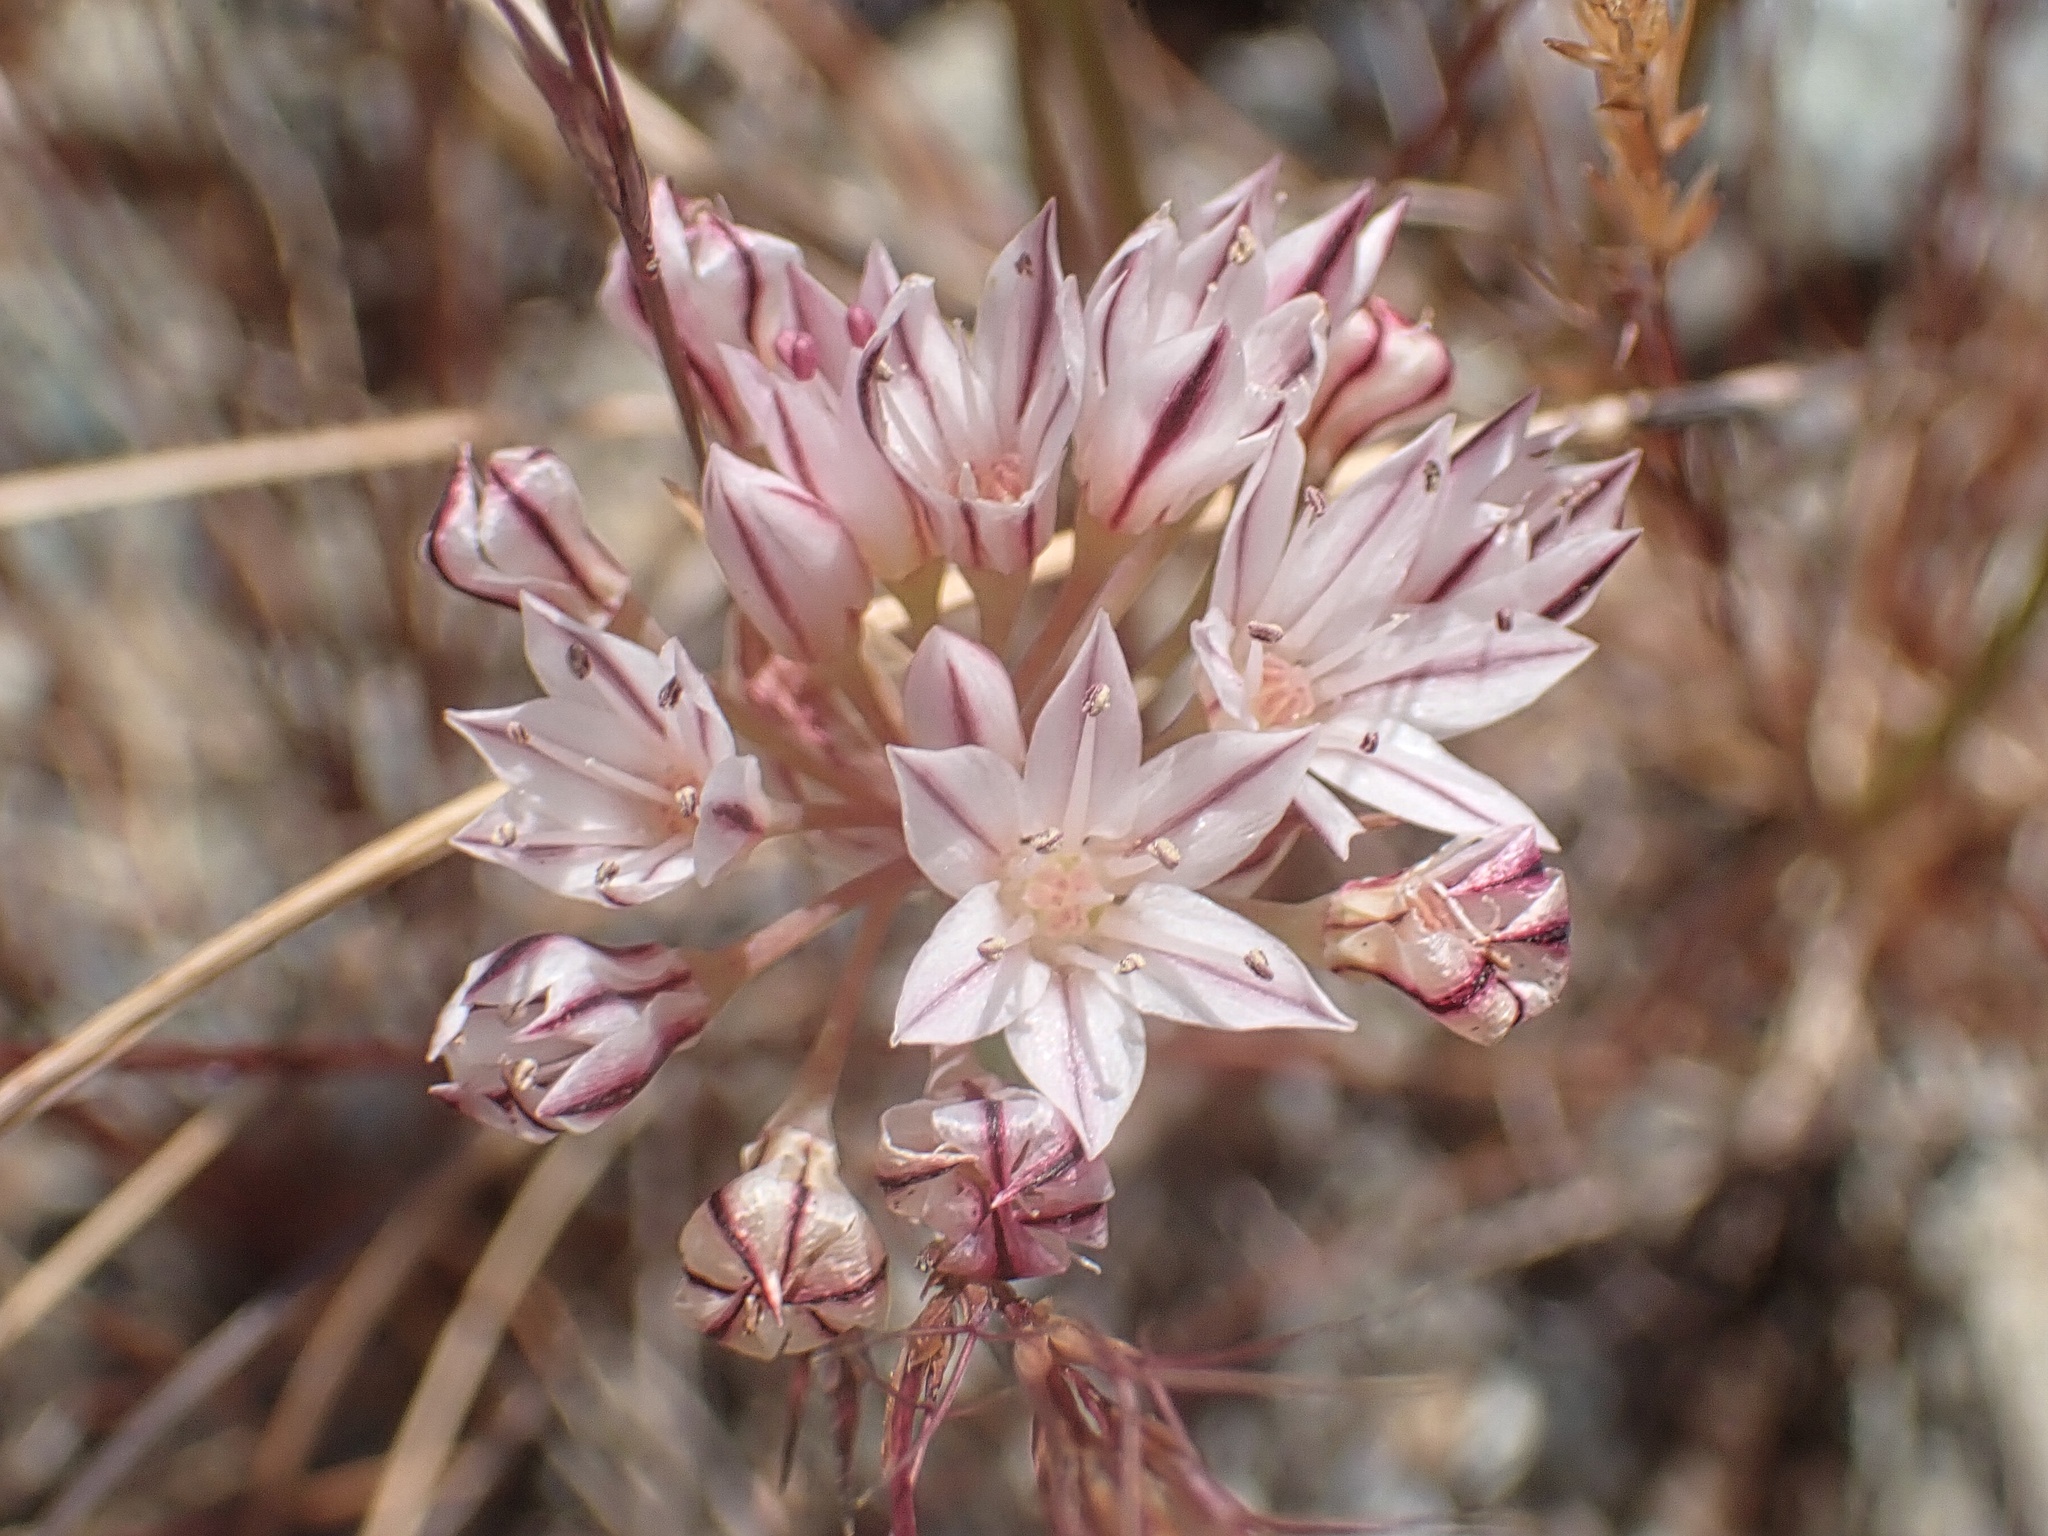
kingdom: Plantae
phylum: Tracheophyta
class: Liliopsida
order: Asparagales
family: Amaryllidaceae
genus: Allium
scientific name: Allium lacunosum
